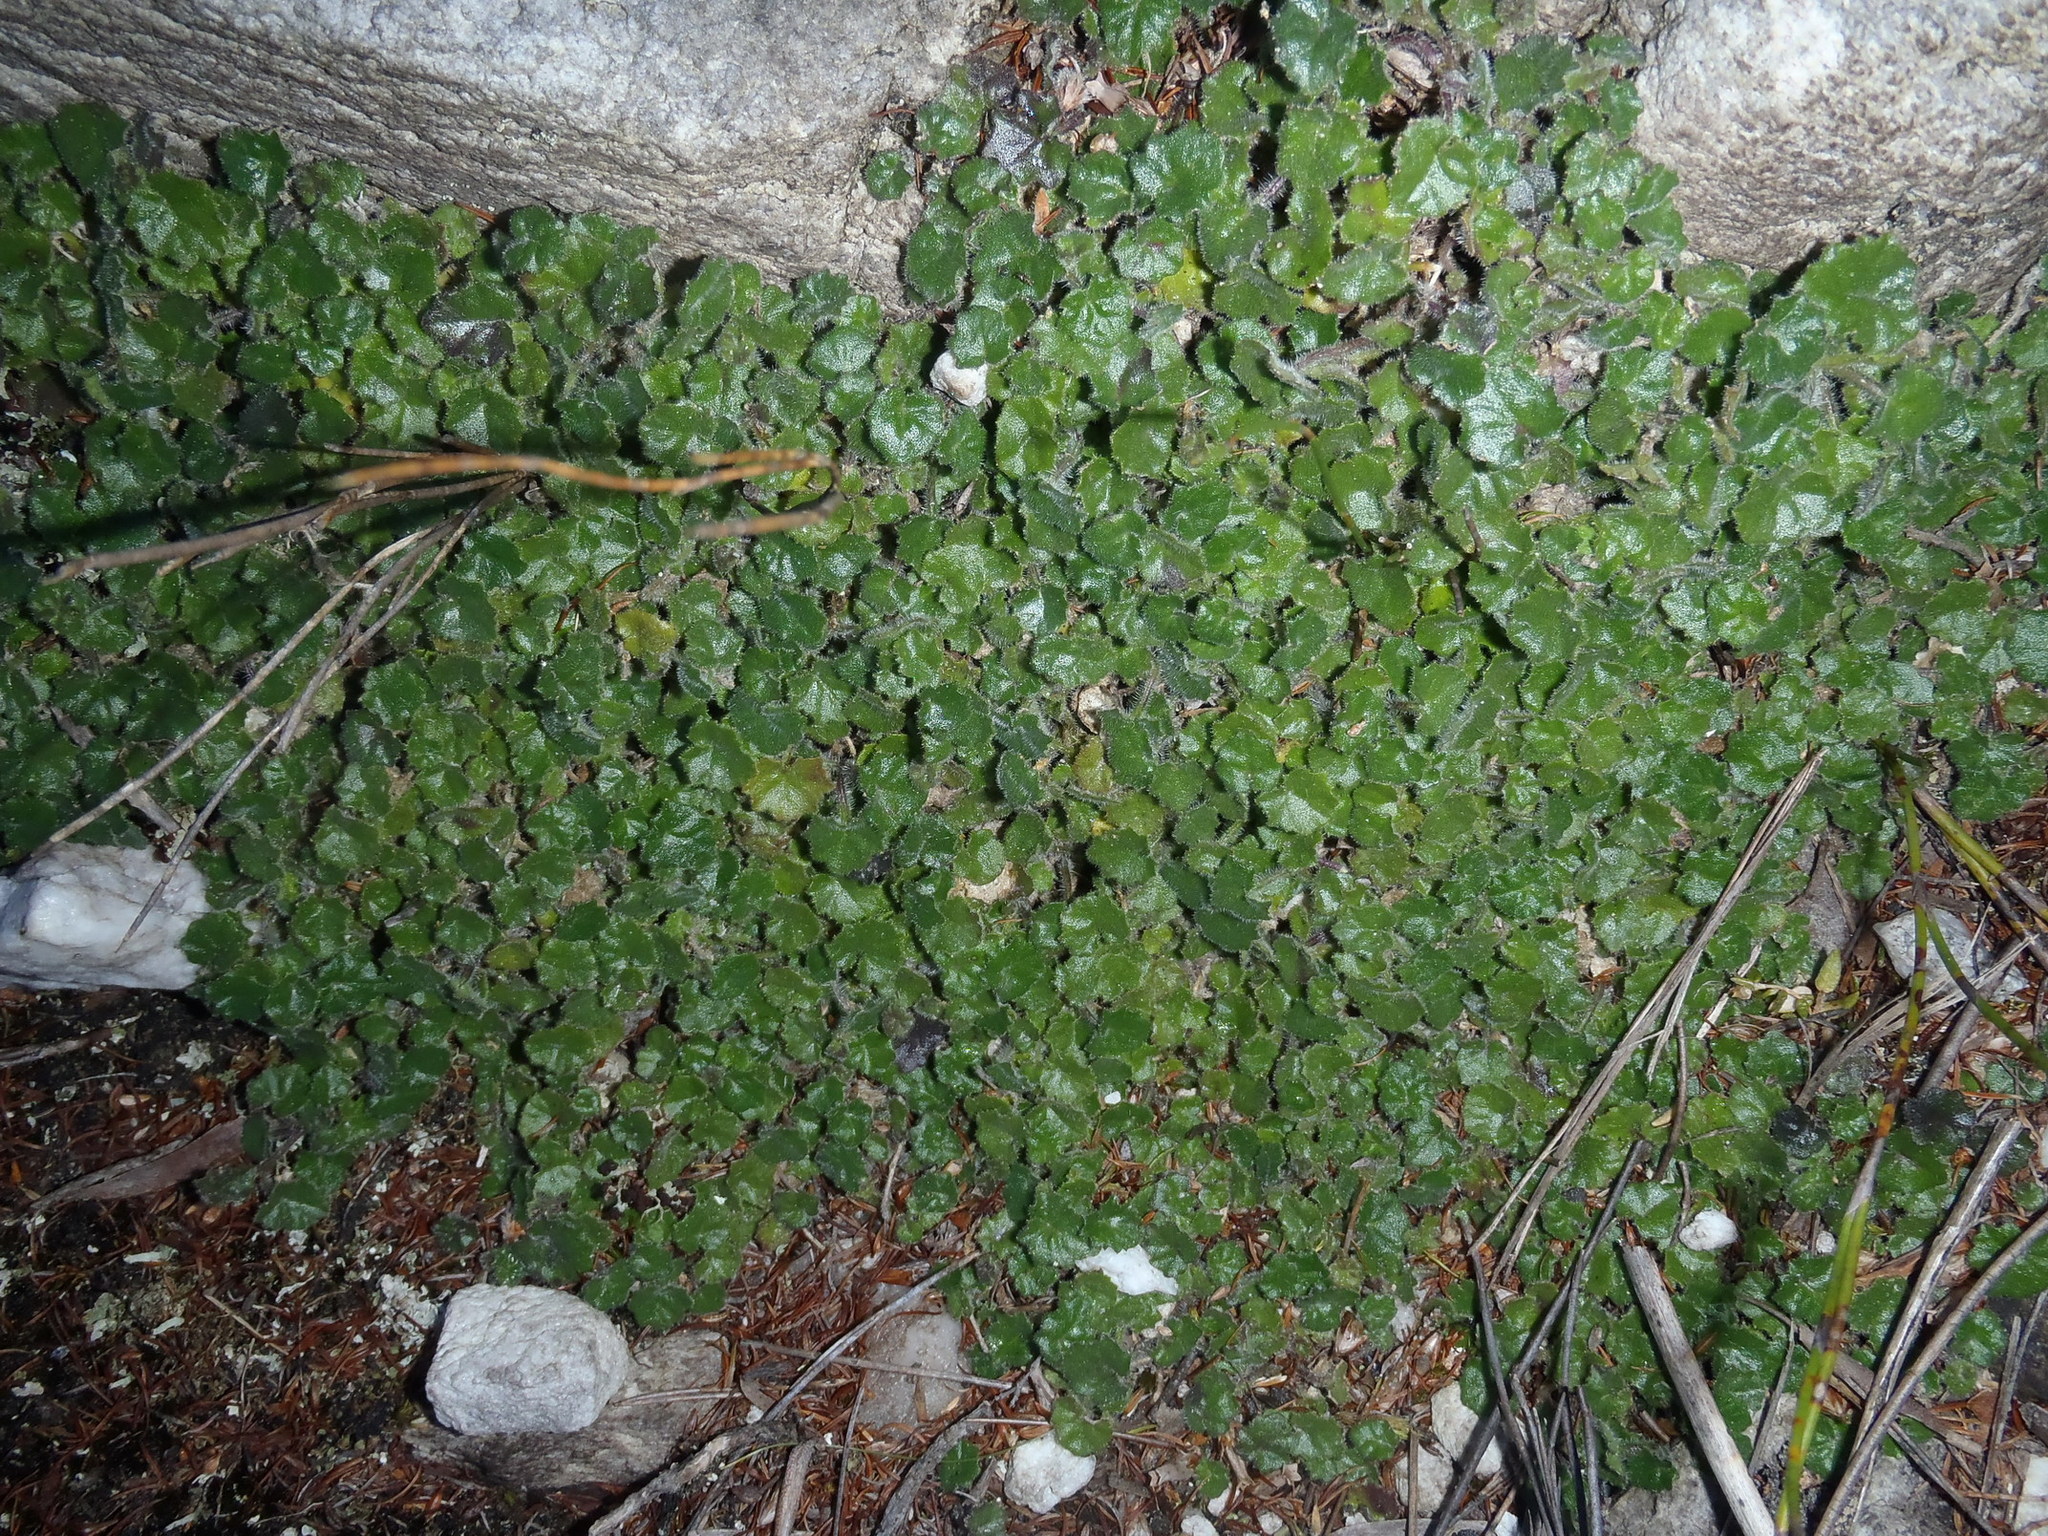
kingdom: Plantae
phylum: Tracheophyta
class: Magnoliopsida
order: Asterales
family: Campanulaceae
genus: Lobelia
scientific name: Lobelia ardisiandroides
